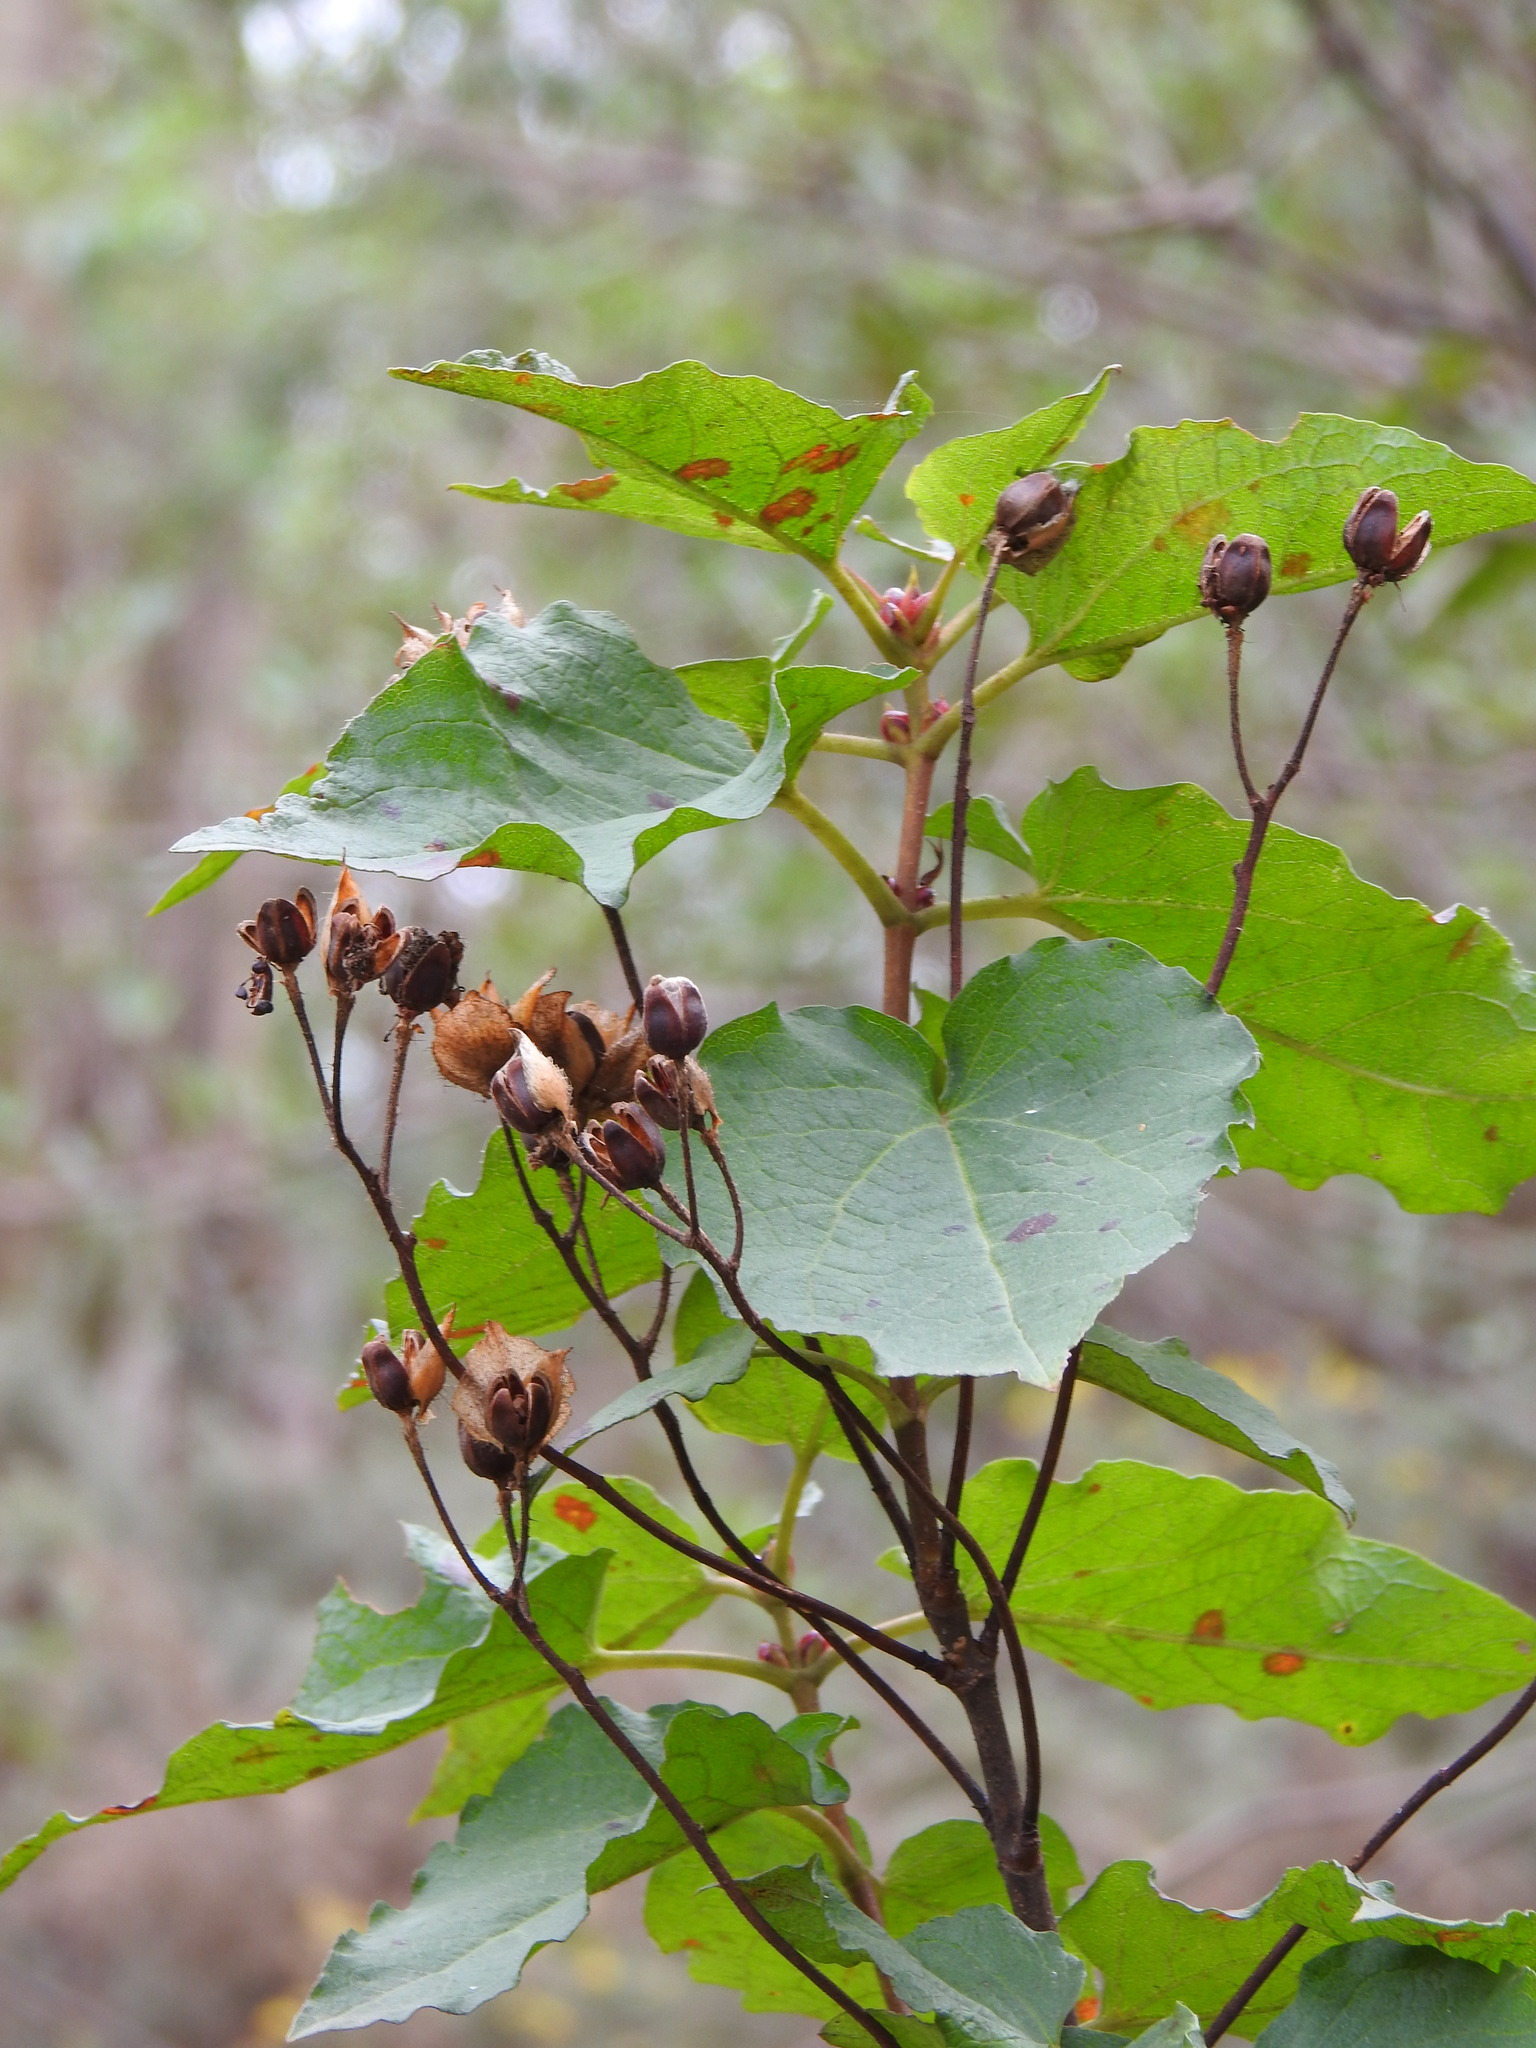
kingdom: Plantae
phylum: Tracheophyta
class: Magnoliopsida
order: Malvales
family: Cistaceae
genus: Cistus
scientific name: Cistus populifolius
